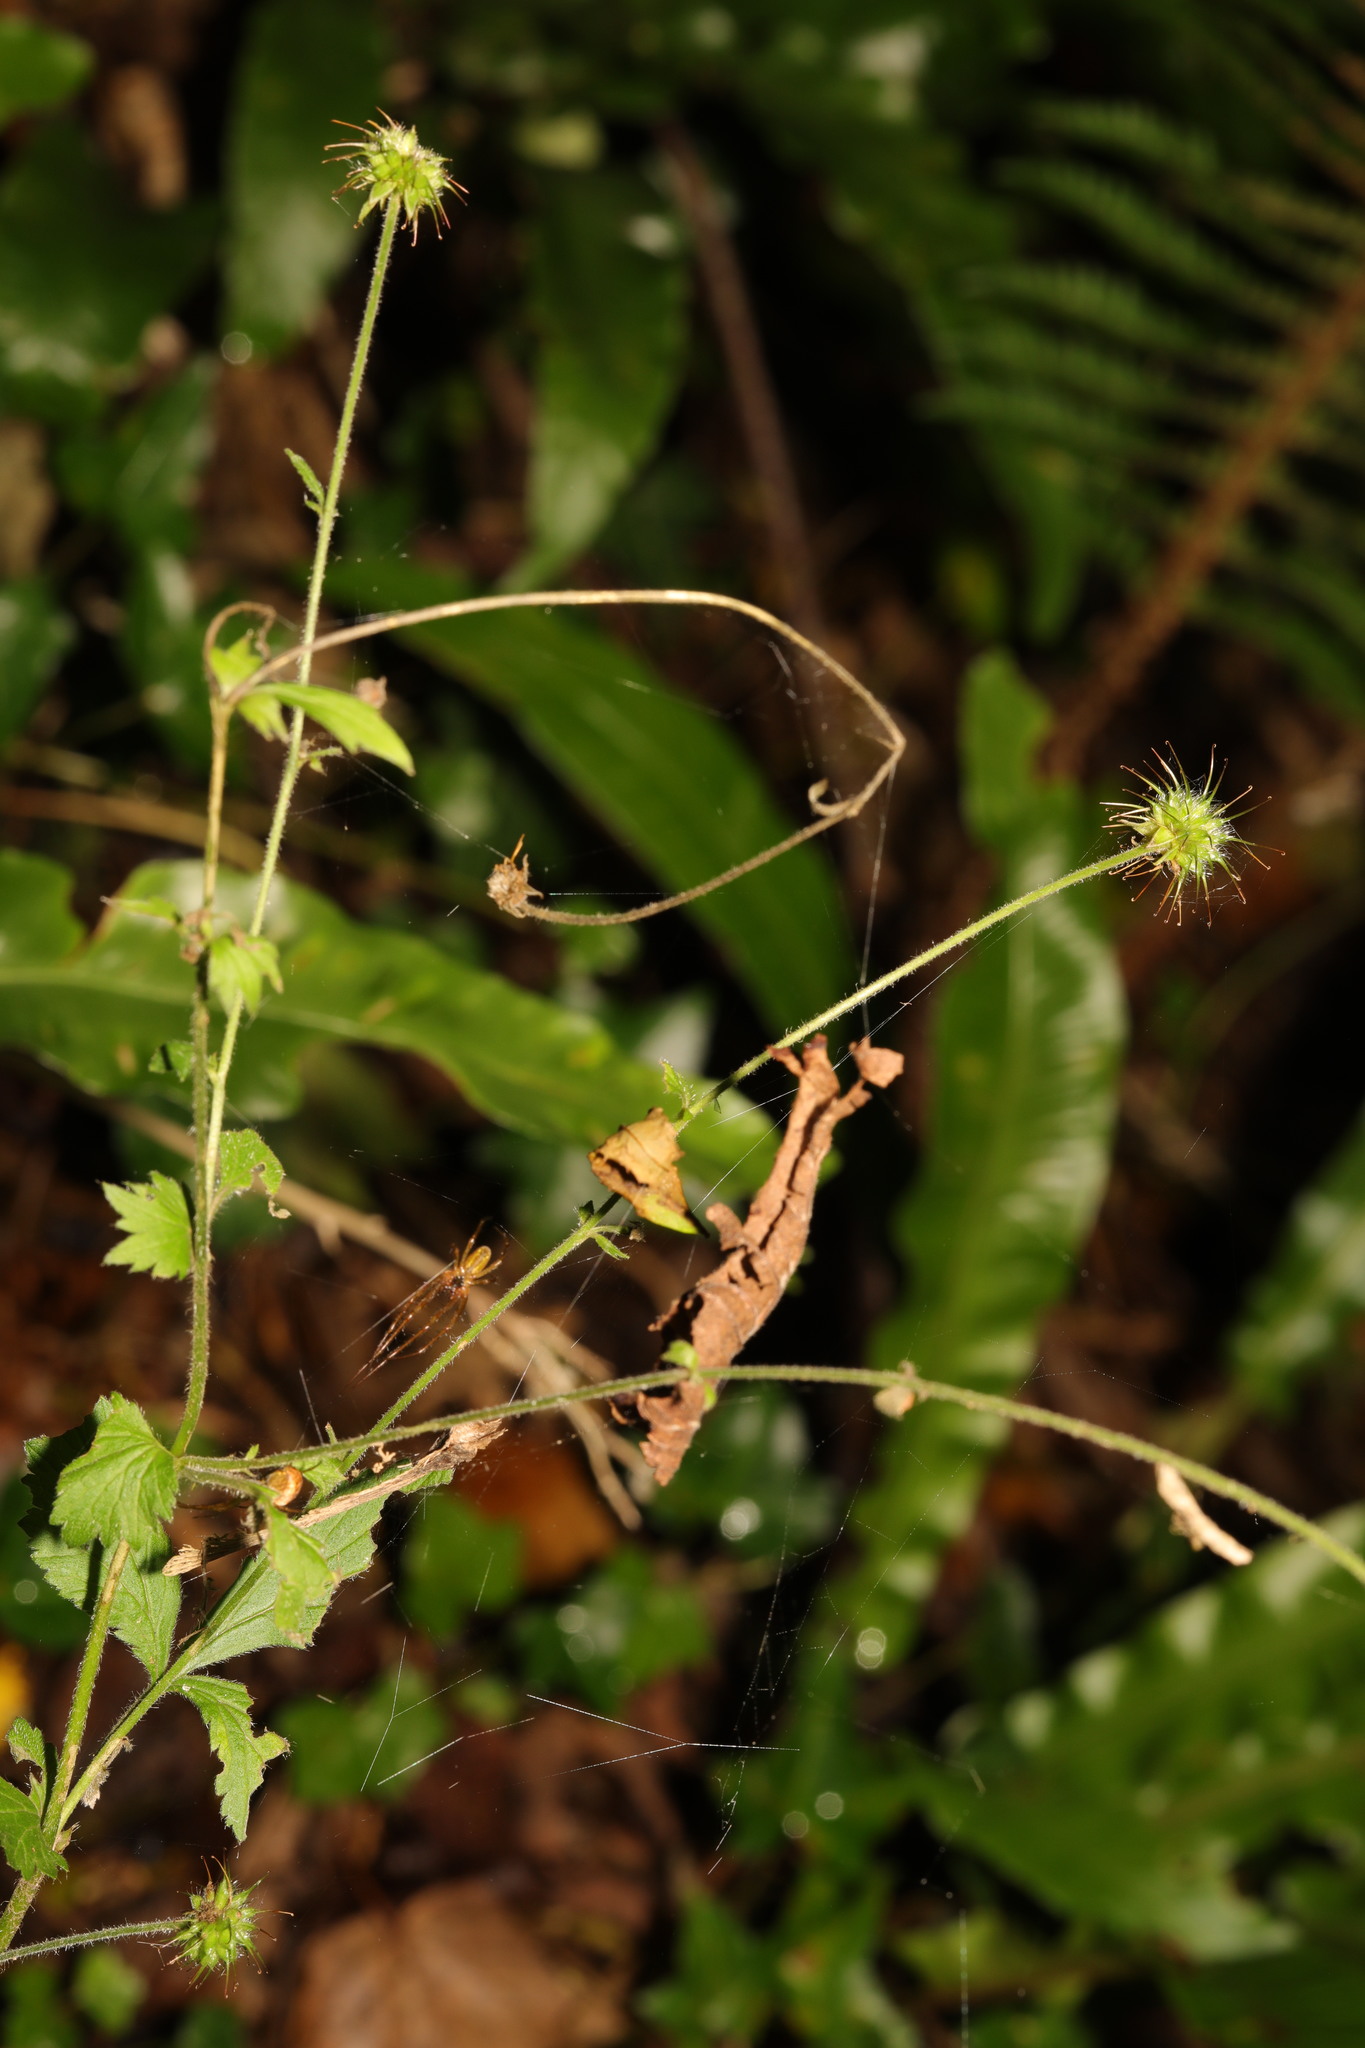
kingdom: Plantae
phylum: Tracheophyta
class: Magnoliopsida
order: Rosales
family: Rosaceae
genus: Geum
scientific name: Geum urbanum
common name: Wood avens
